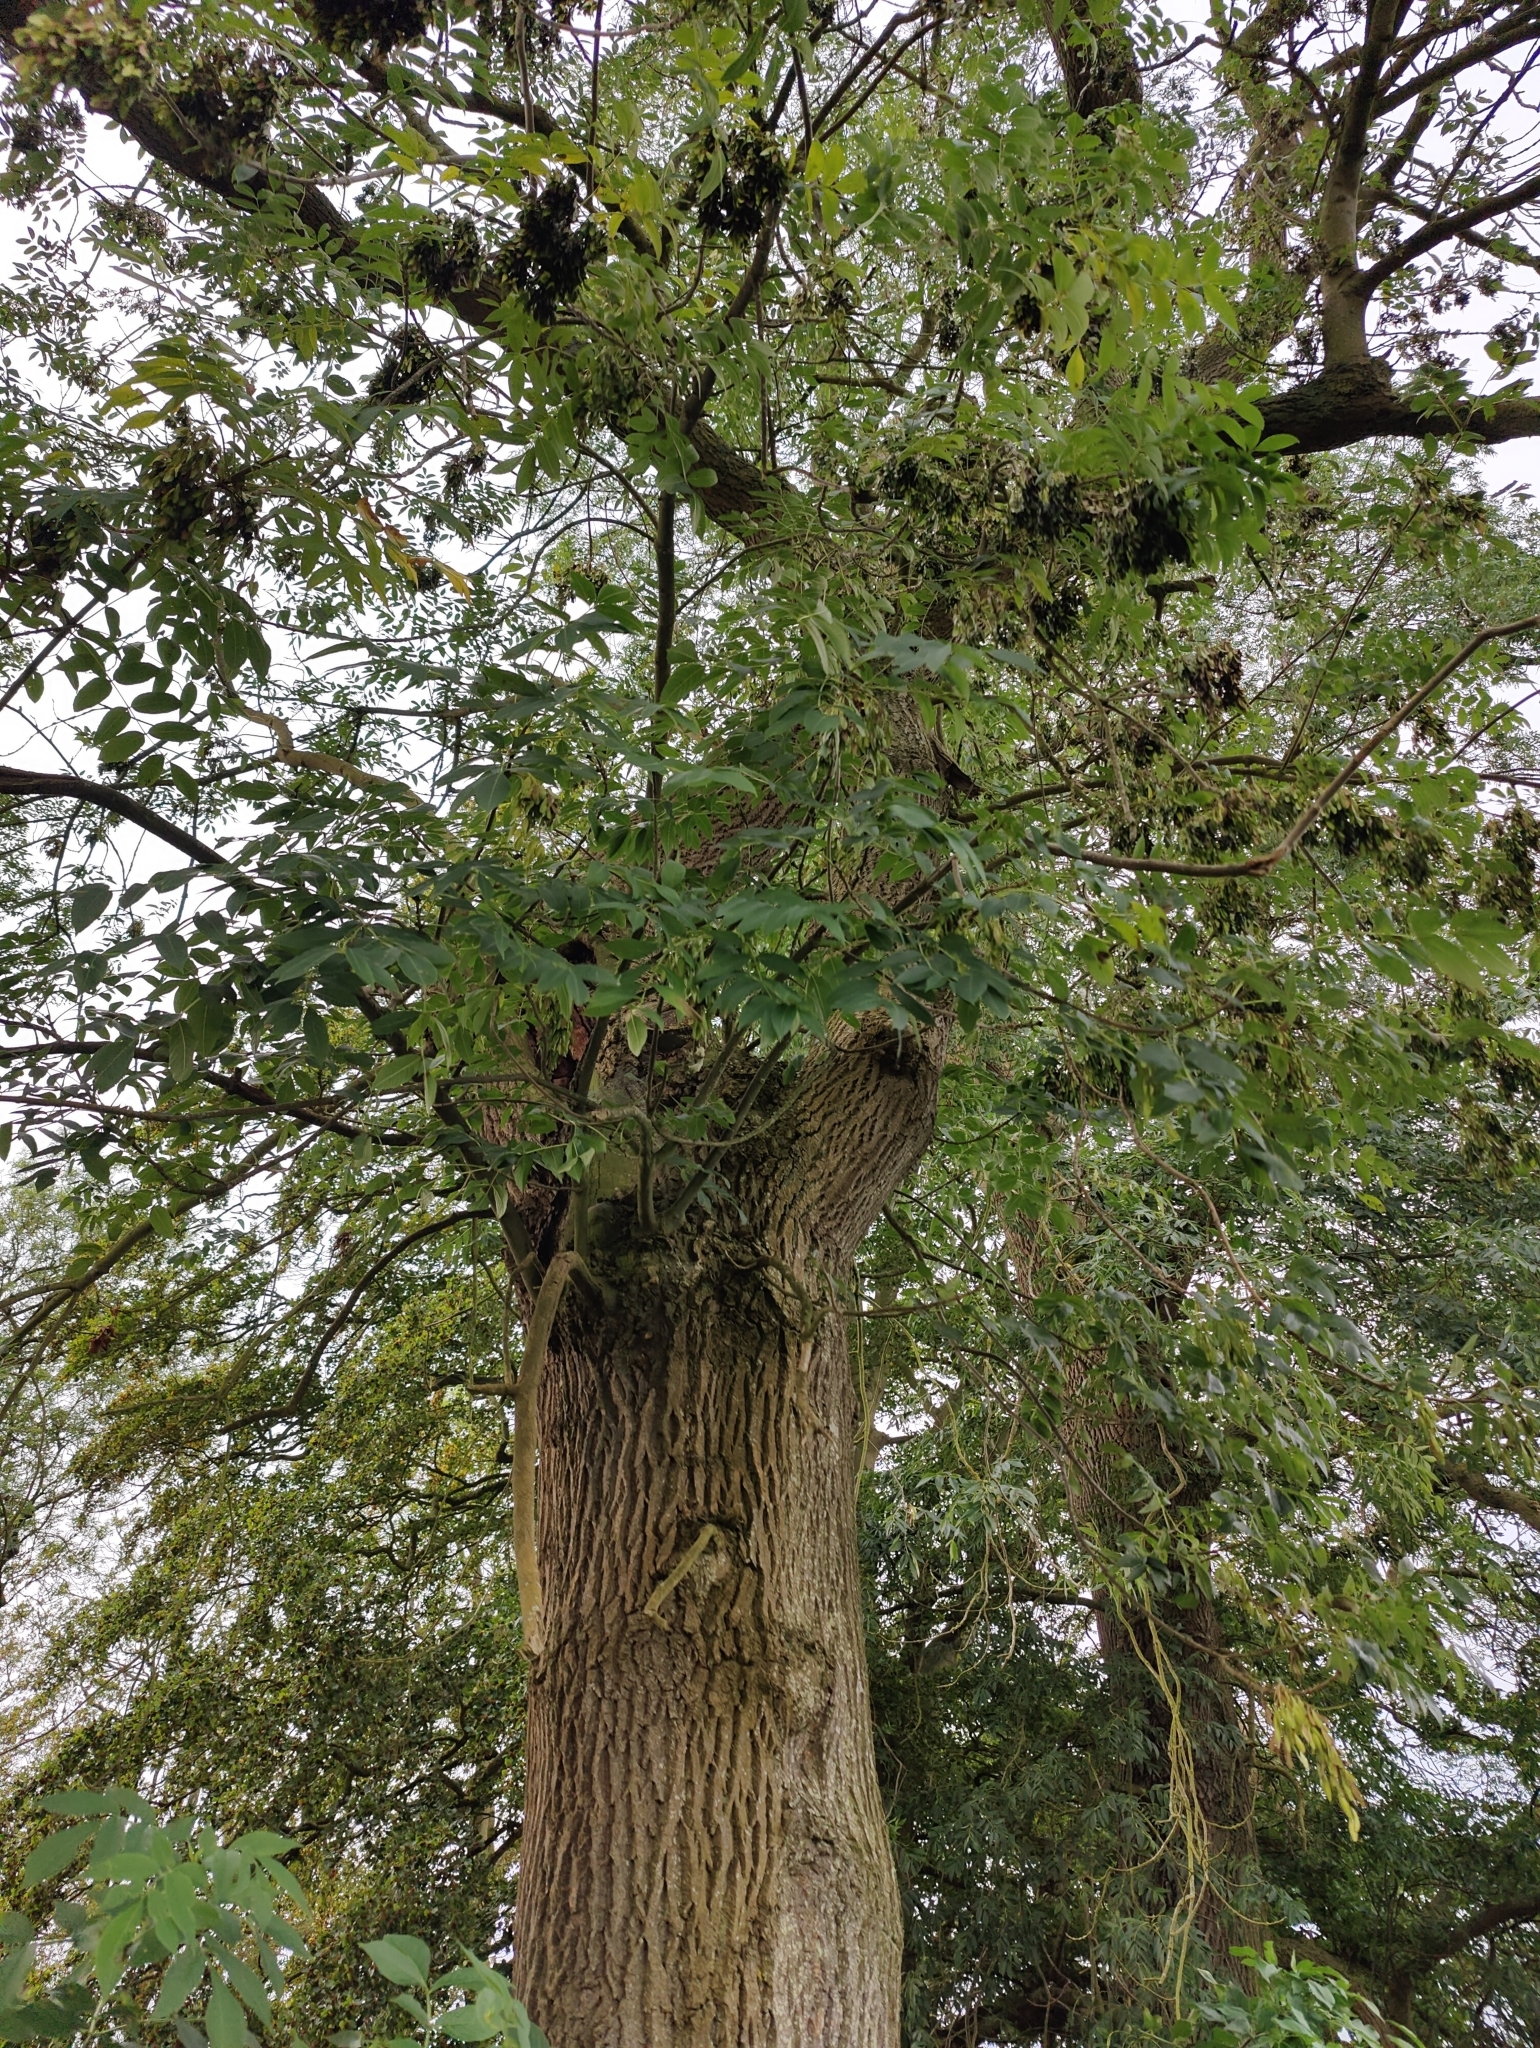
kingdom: Plantae
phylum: Tracheophyta
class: Magnoliopsida
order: Lamiales
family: Oleaceae
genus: Fraxinus
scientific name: Fraxinus excelsior
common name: European ash
